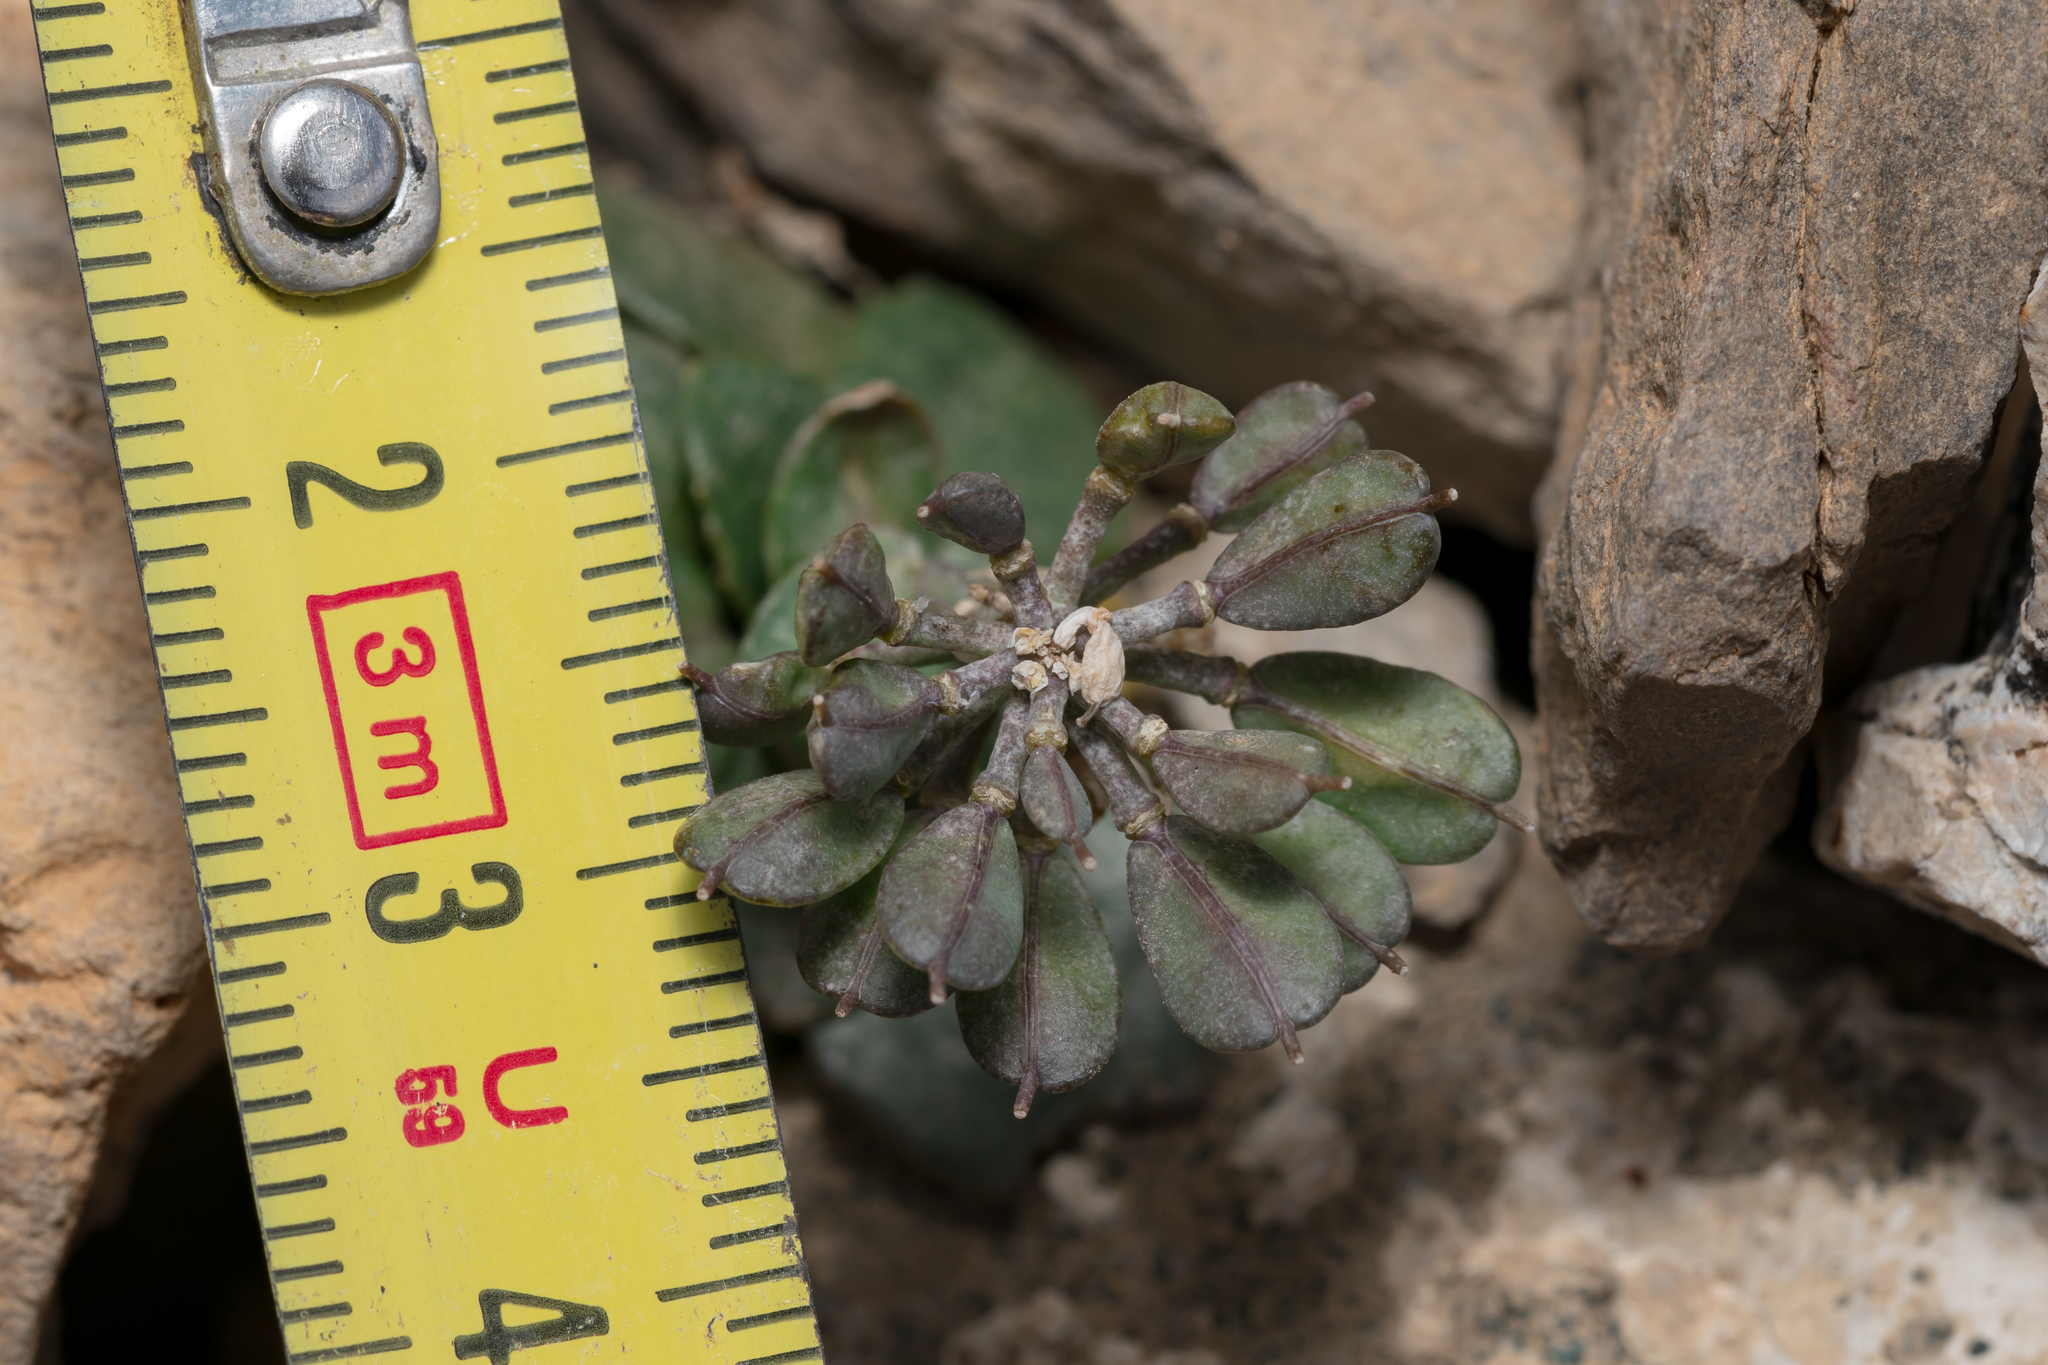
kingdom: Plantae
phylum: Tracheophyta
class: Magnoliopsida
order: Brassicales
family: Brassicaceae
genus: Noccaea
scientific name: Noccaea rotundifolia
